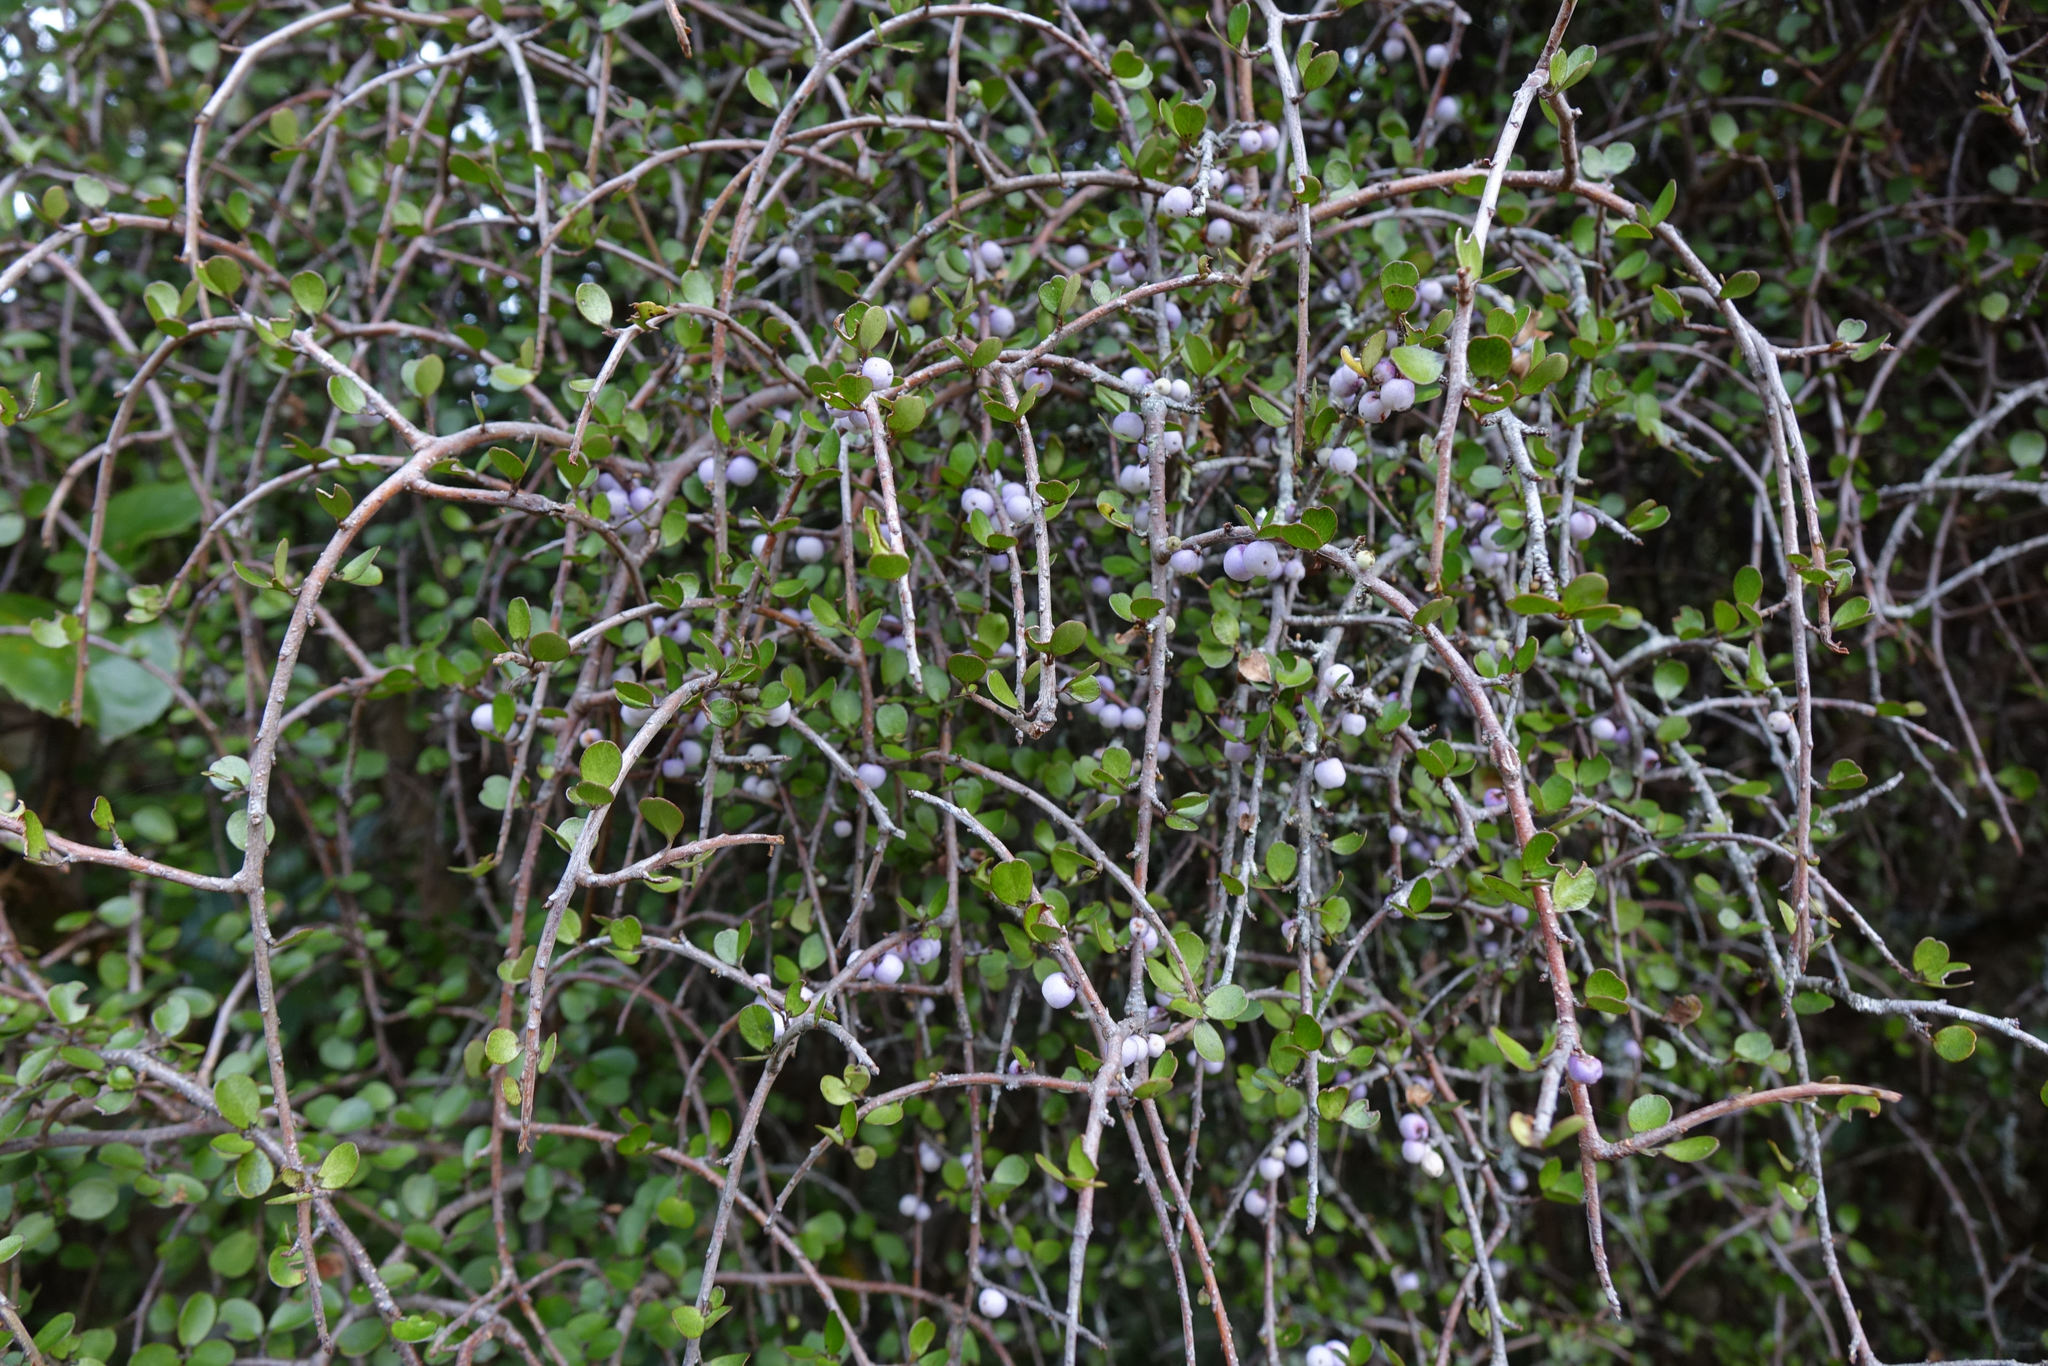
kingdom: Plantae
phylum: Tracheophyta
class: Magnoliopsida
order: Ericales
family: Primulaceae
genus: Myrsine
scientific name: Myrsine divaricata
